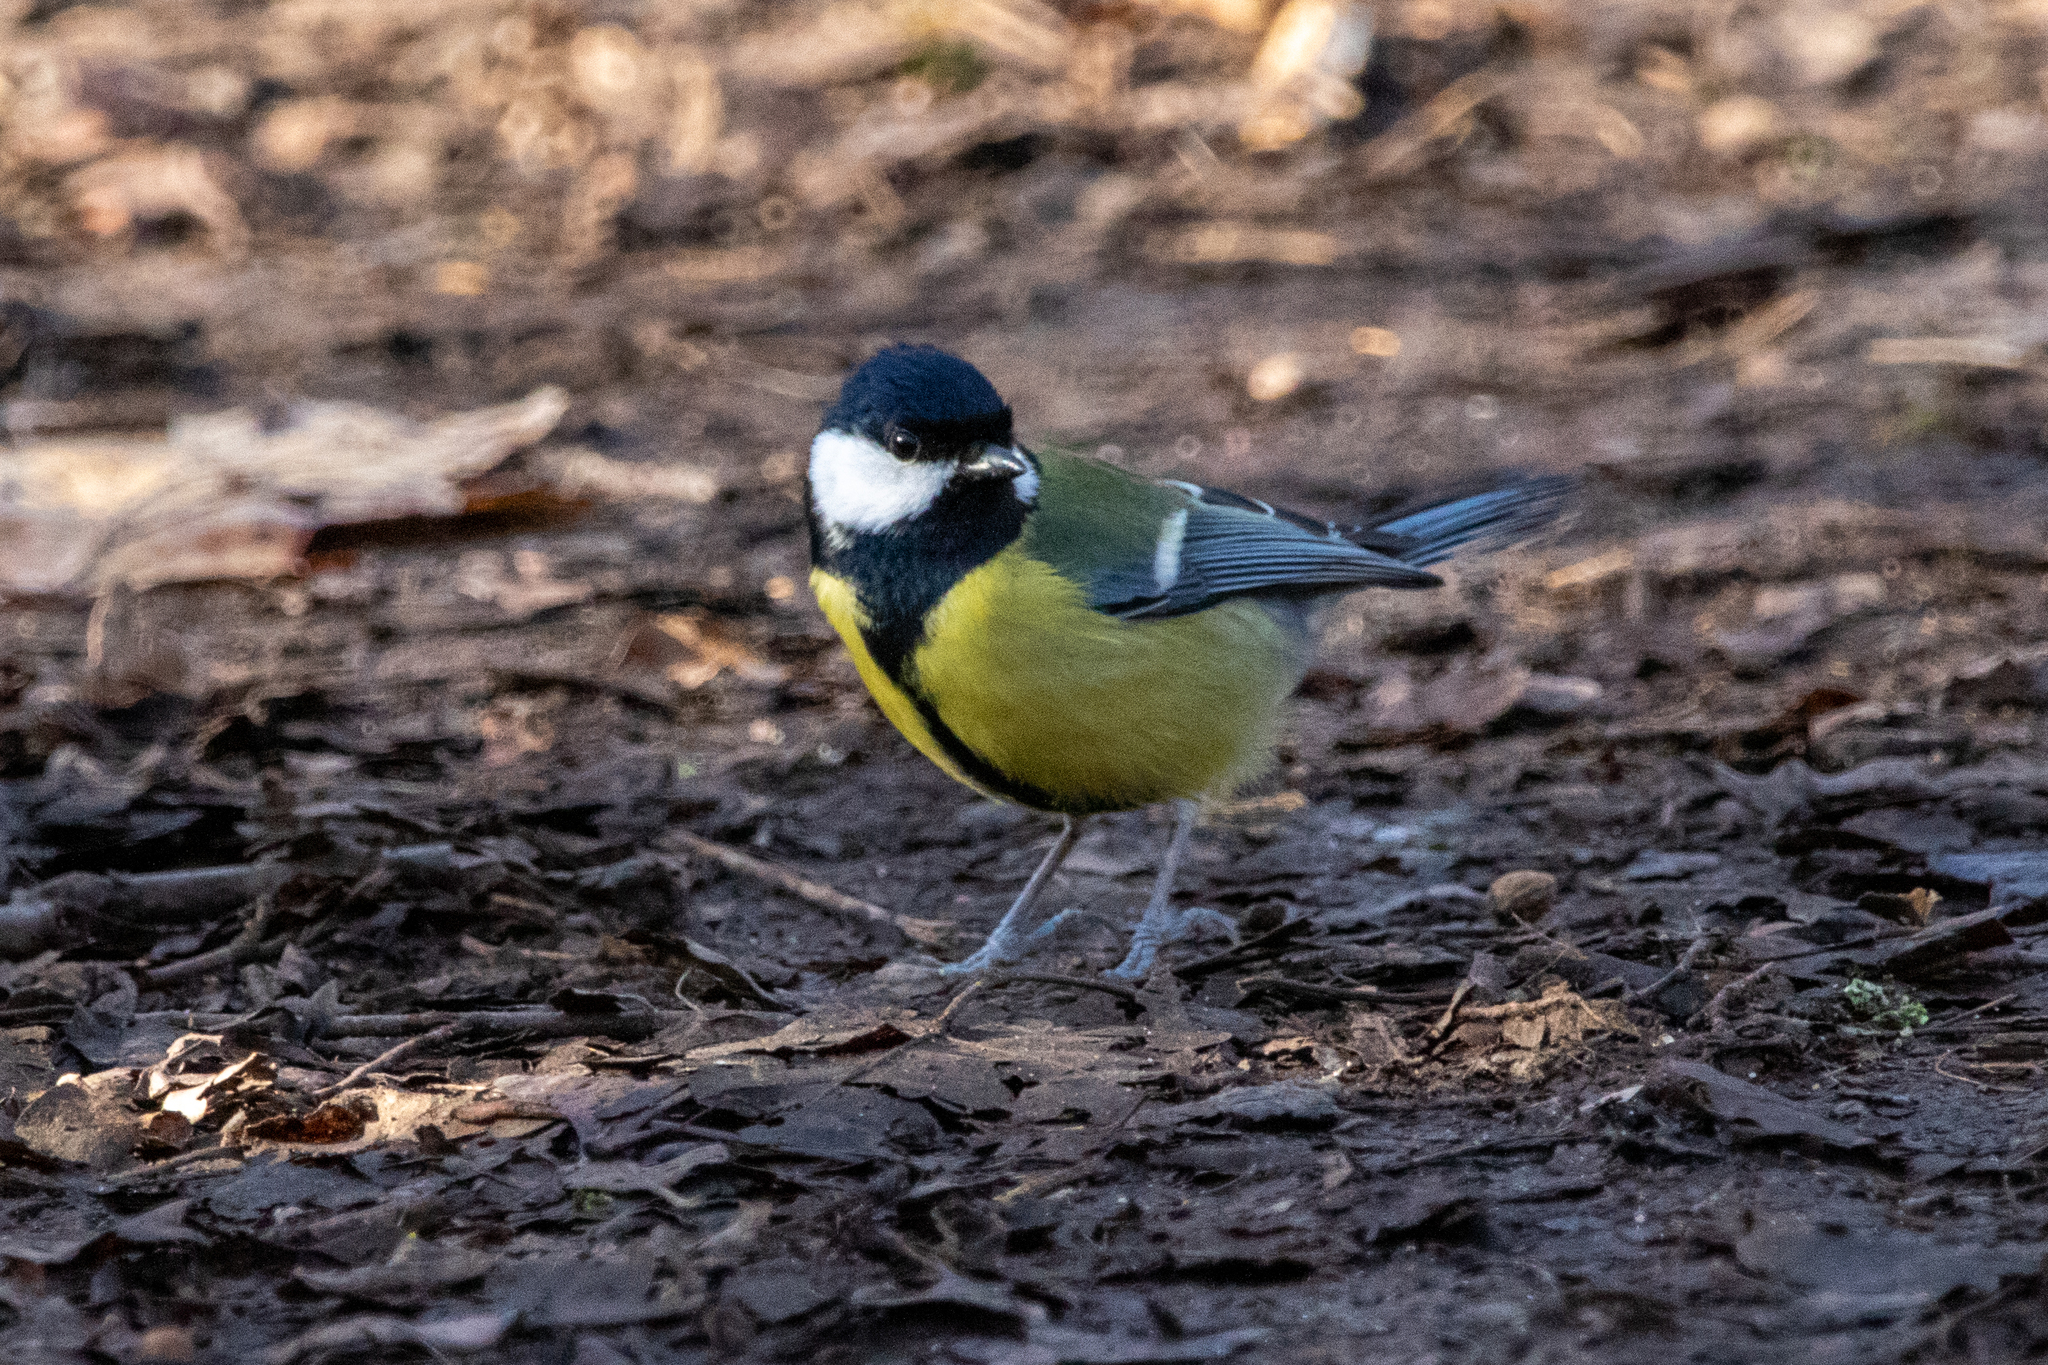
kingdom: Animalia
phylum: Chordata
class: Aves
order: Passeriformes
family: Paridae
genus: Parus
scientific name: Parus major
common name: Great tit
